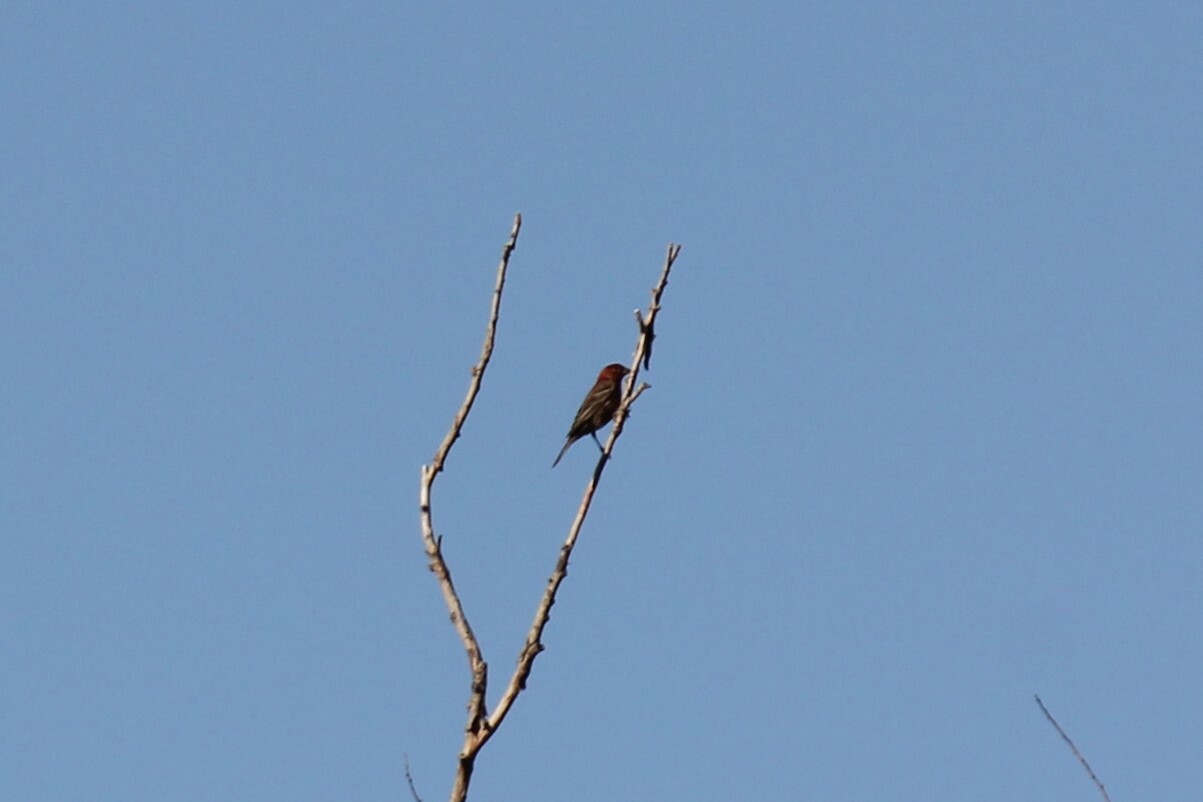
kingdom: Animalia
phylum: Chordata
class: Aves
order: Passeriformes
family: Fringillidae
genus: Haemorhous
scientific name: Haemorhous mexicanus
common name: House finch
